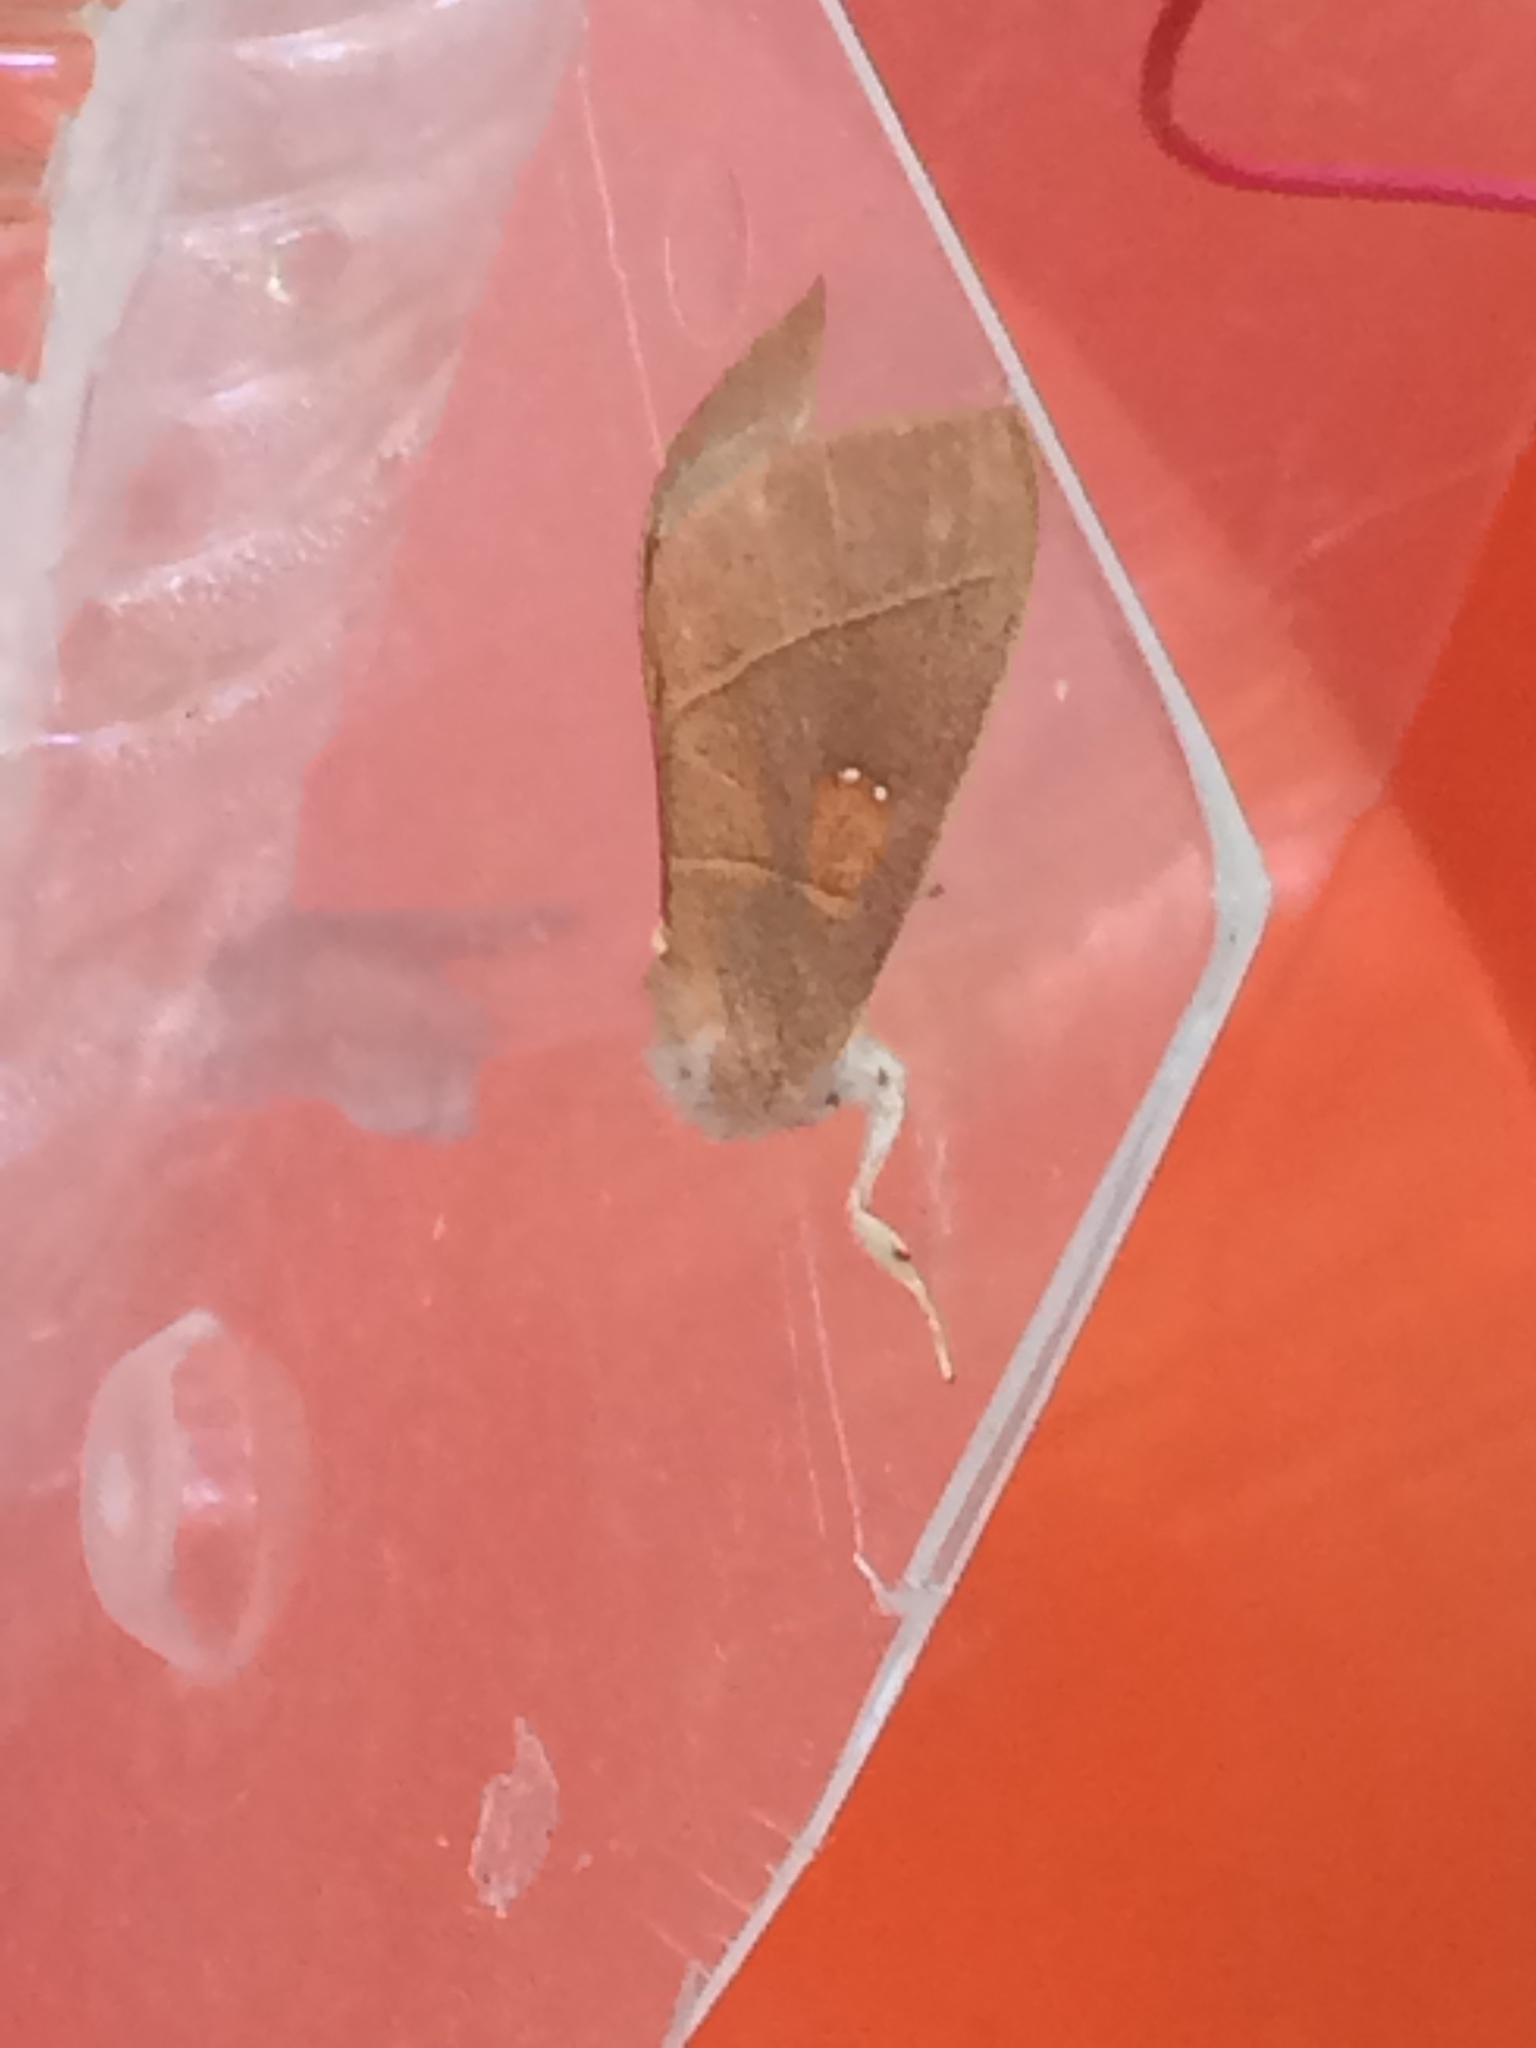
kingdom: Animalia
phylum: Arthropoda
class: Insecta
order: Lepidoptera
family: Notodontidae
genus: Nadata
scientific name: Nadata gibbosa
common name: White-dotted prominent
